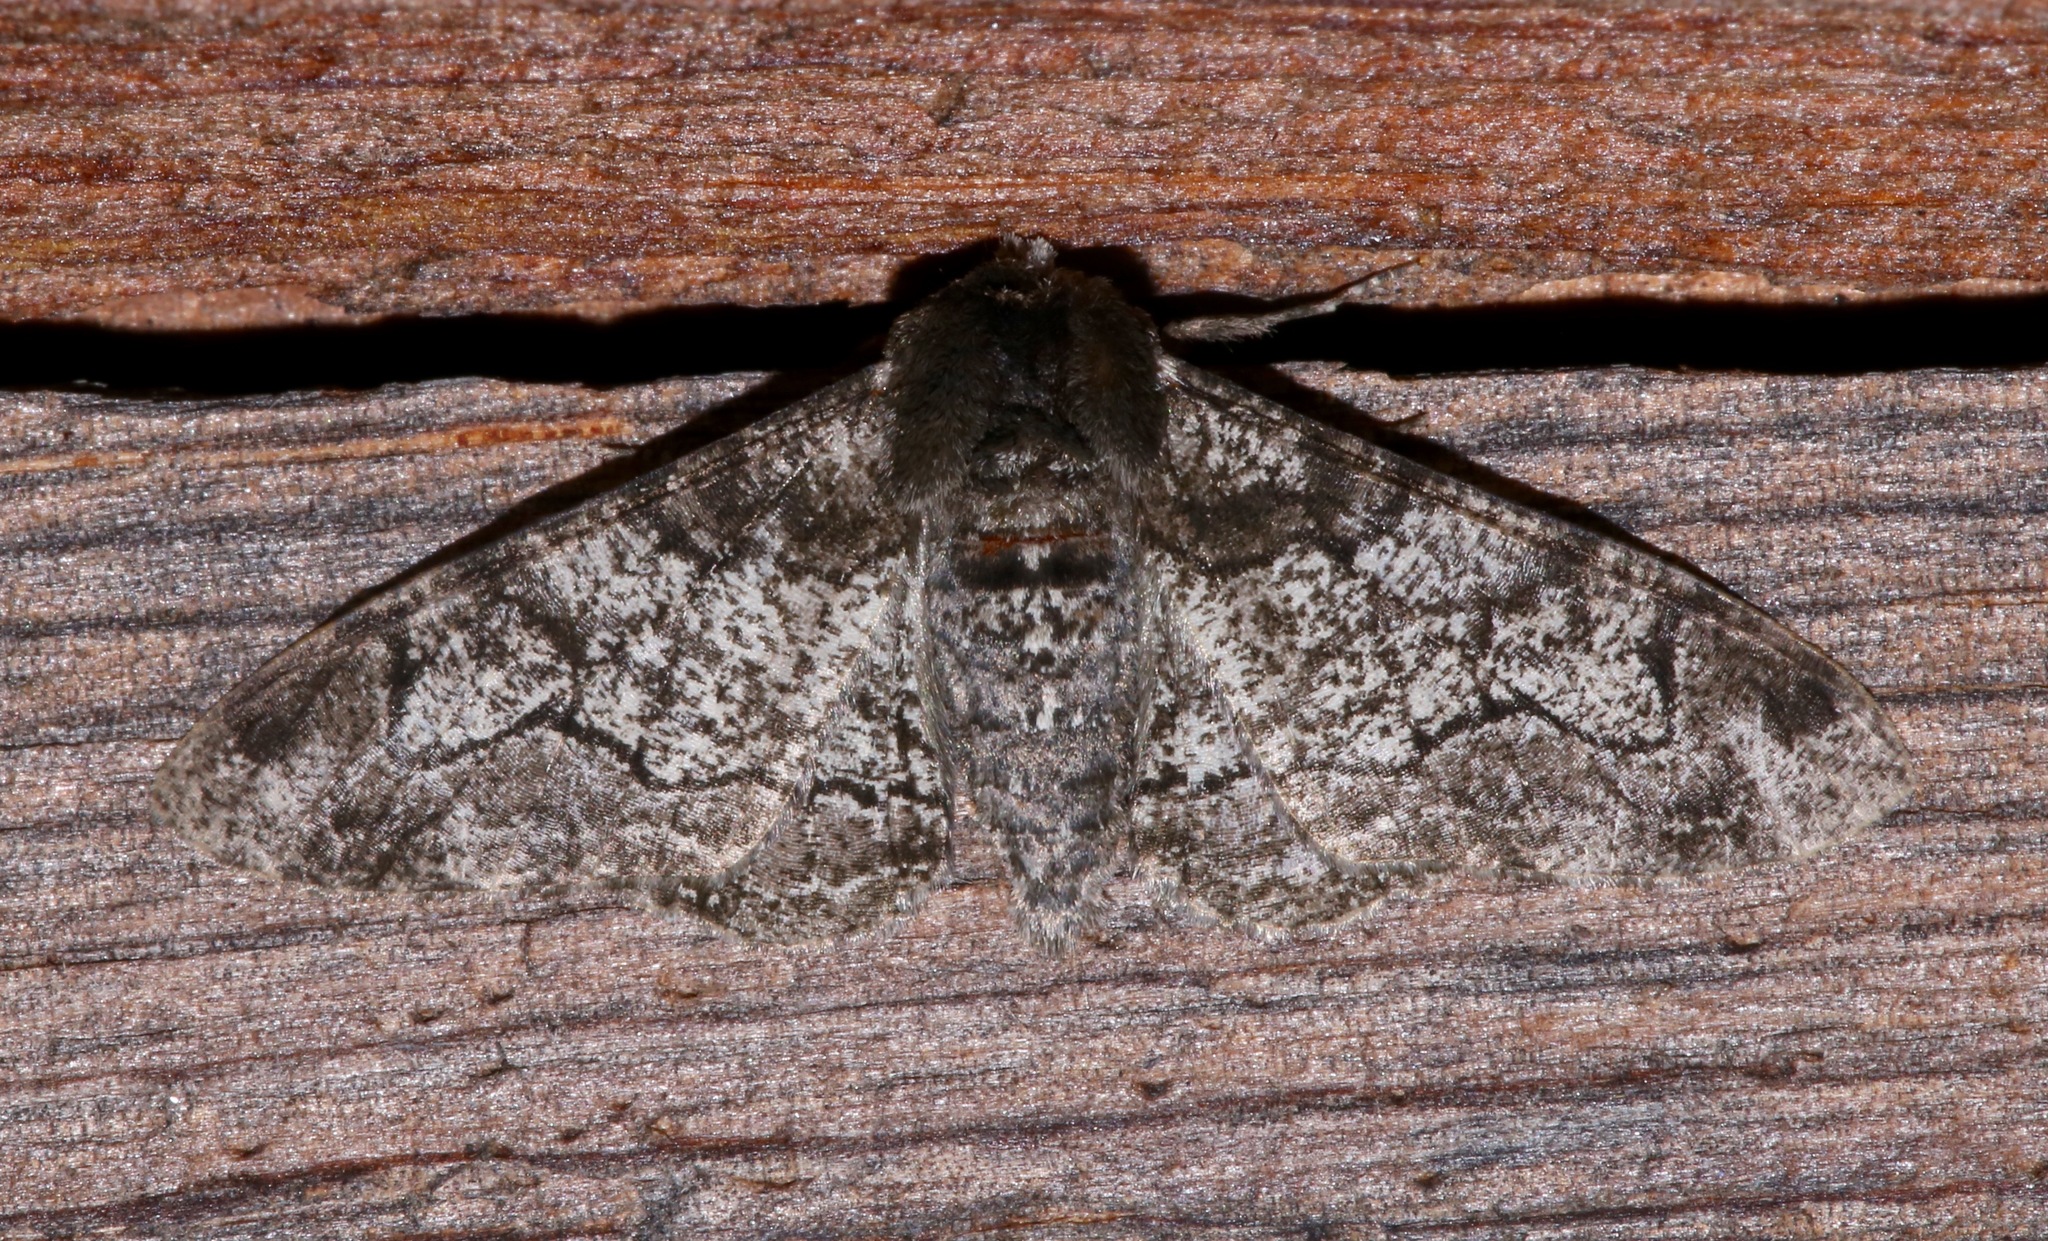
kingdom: Animalia
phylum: Arthropoda
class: Insecta
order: Lepidoptera
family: Geometridae
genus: Biston
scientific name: Biston betularia
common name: Peppered moth
